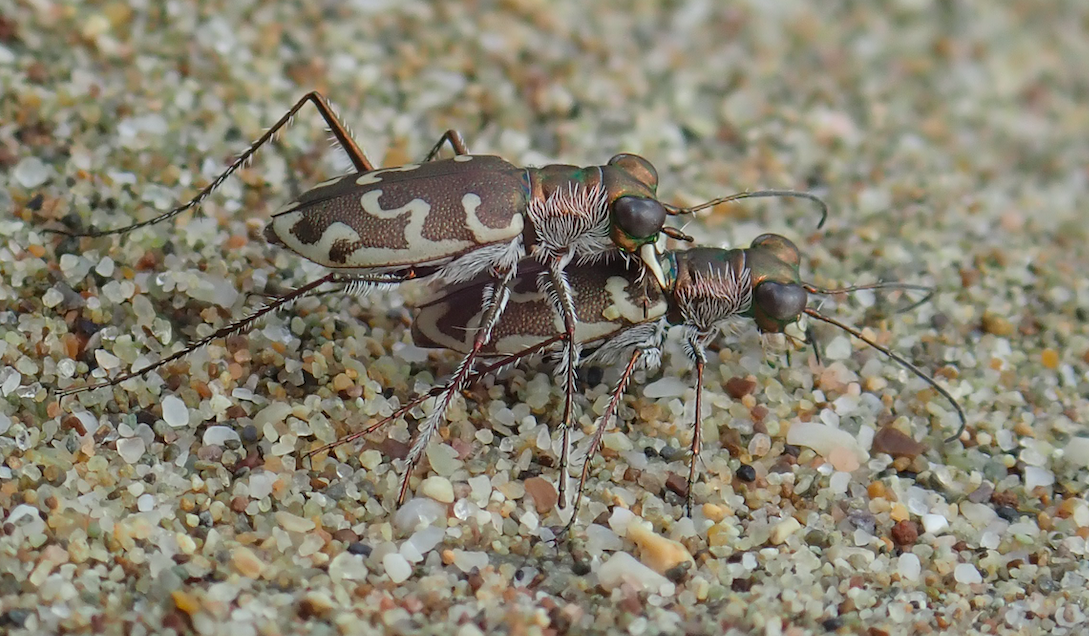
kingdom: Animalia
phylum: Arthropoda
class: Insecta
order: Coleoptera
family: Carabidae
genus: Cylindera
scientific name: Cylindera trisignata
